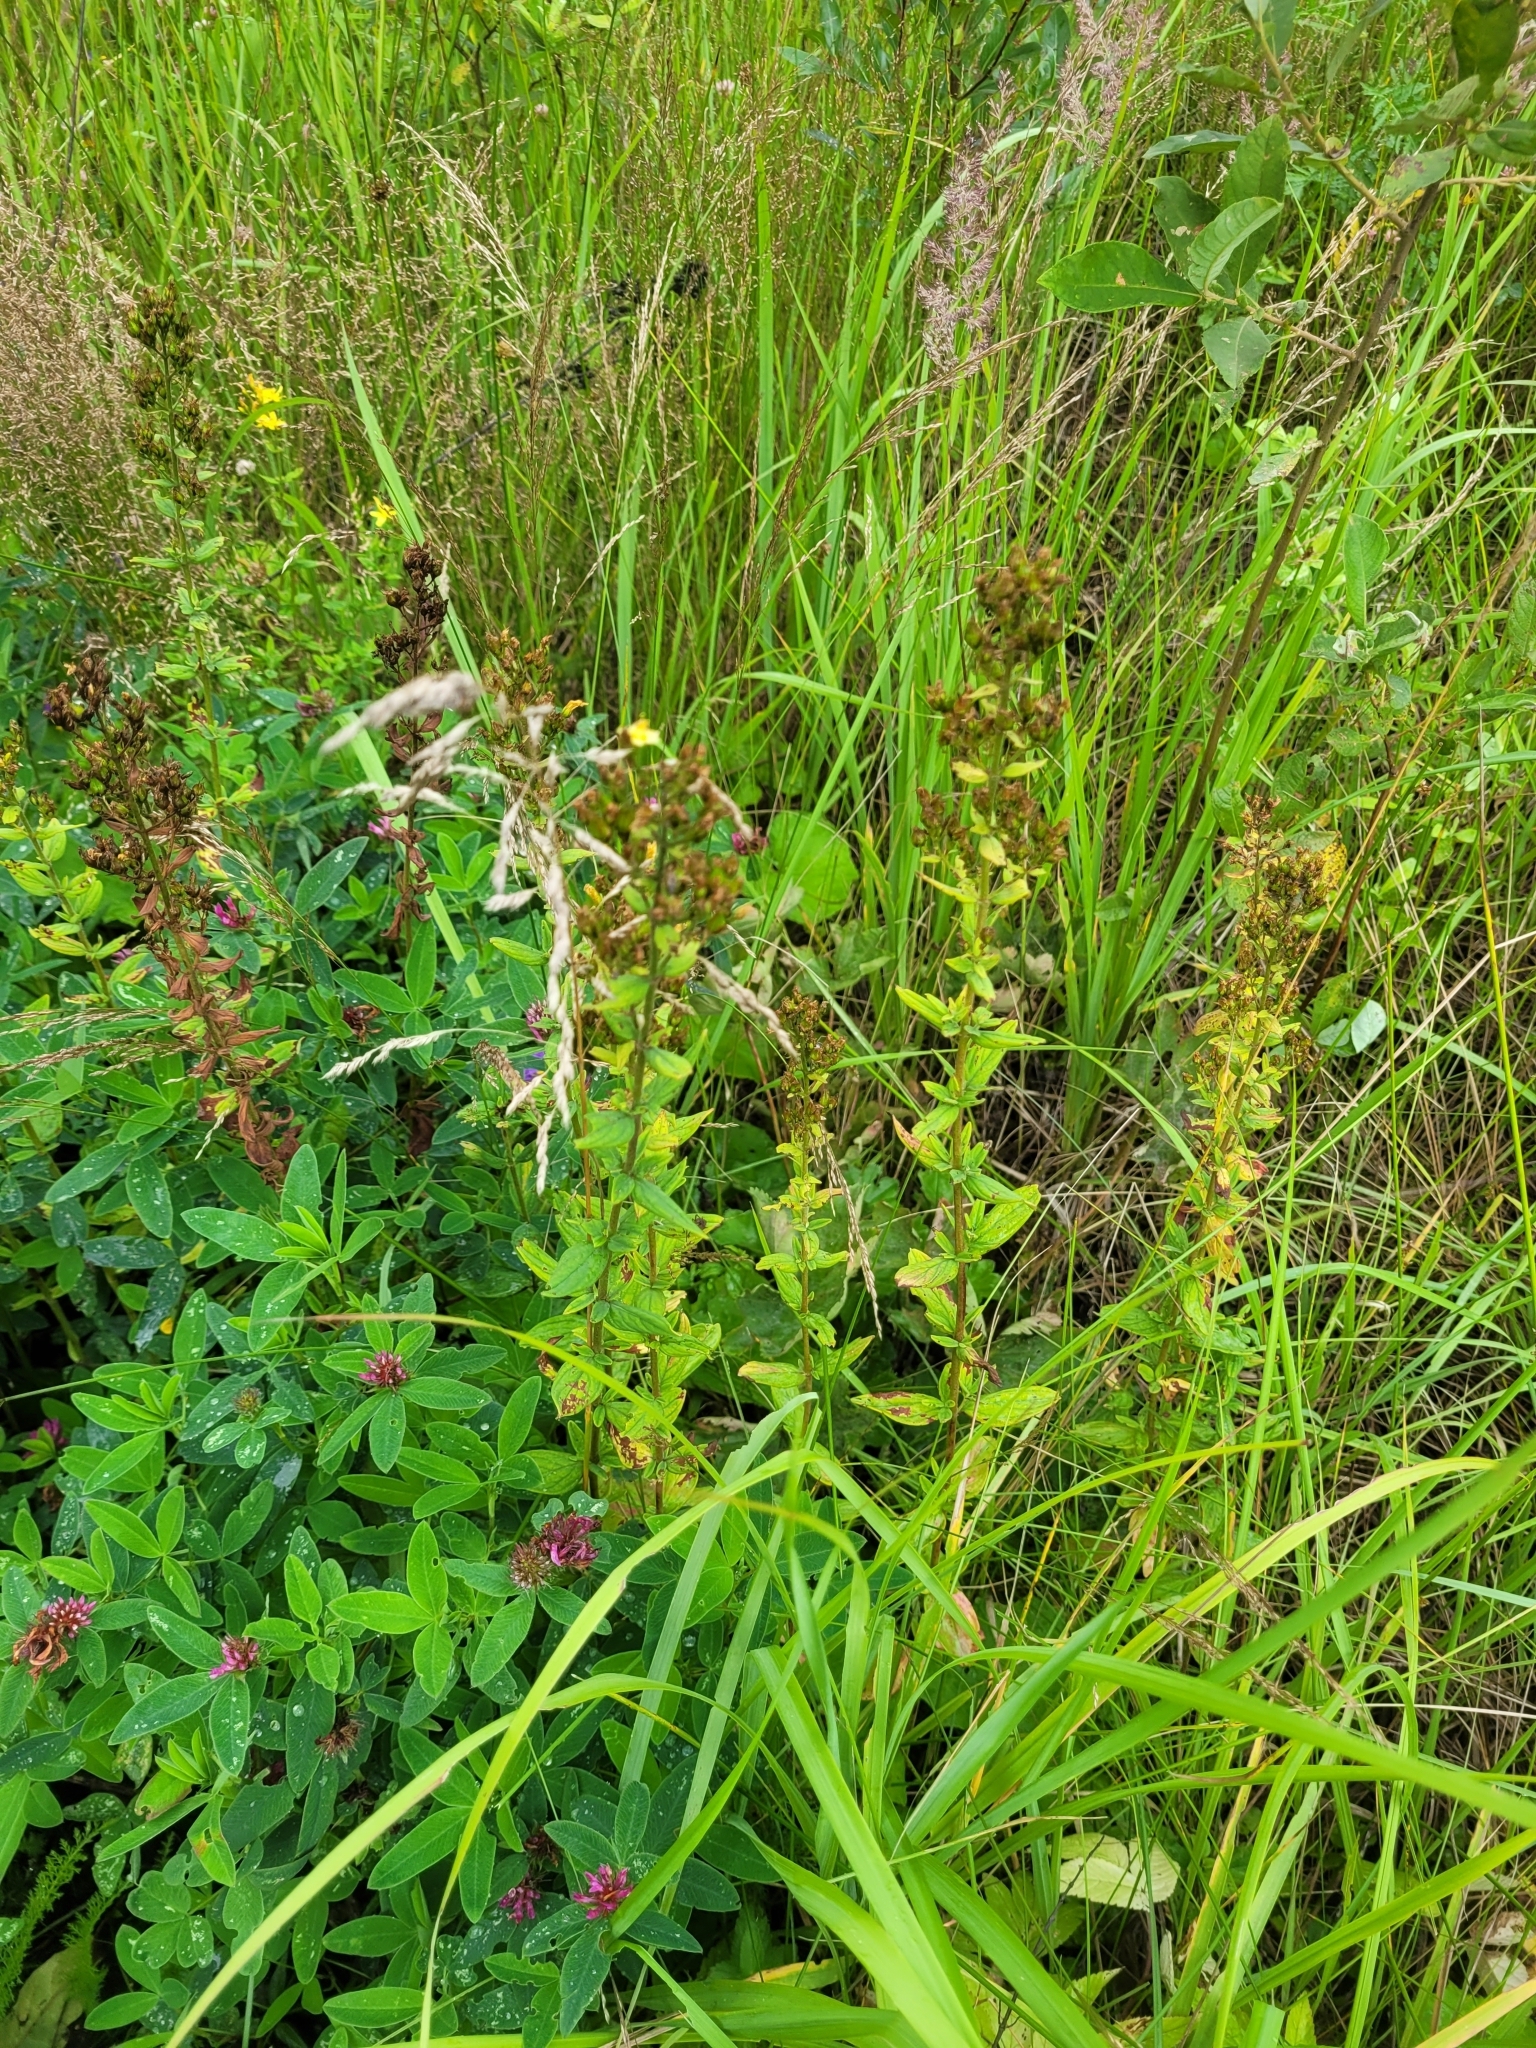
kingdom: Plantae
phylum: Tracheophyta
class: Magnoliopsida
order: Malpighiales
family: Hypericaceae
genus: Hypericum
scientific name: Hypericum hirsutum
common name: Hairy st. john's-wort
